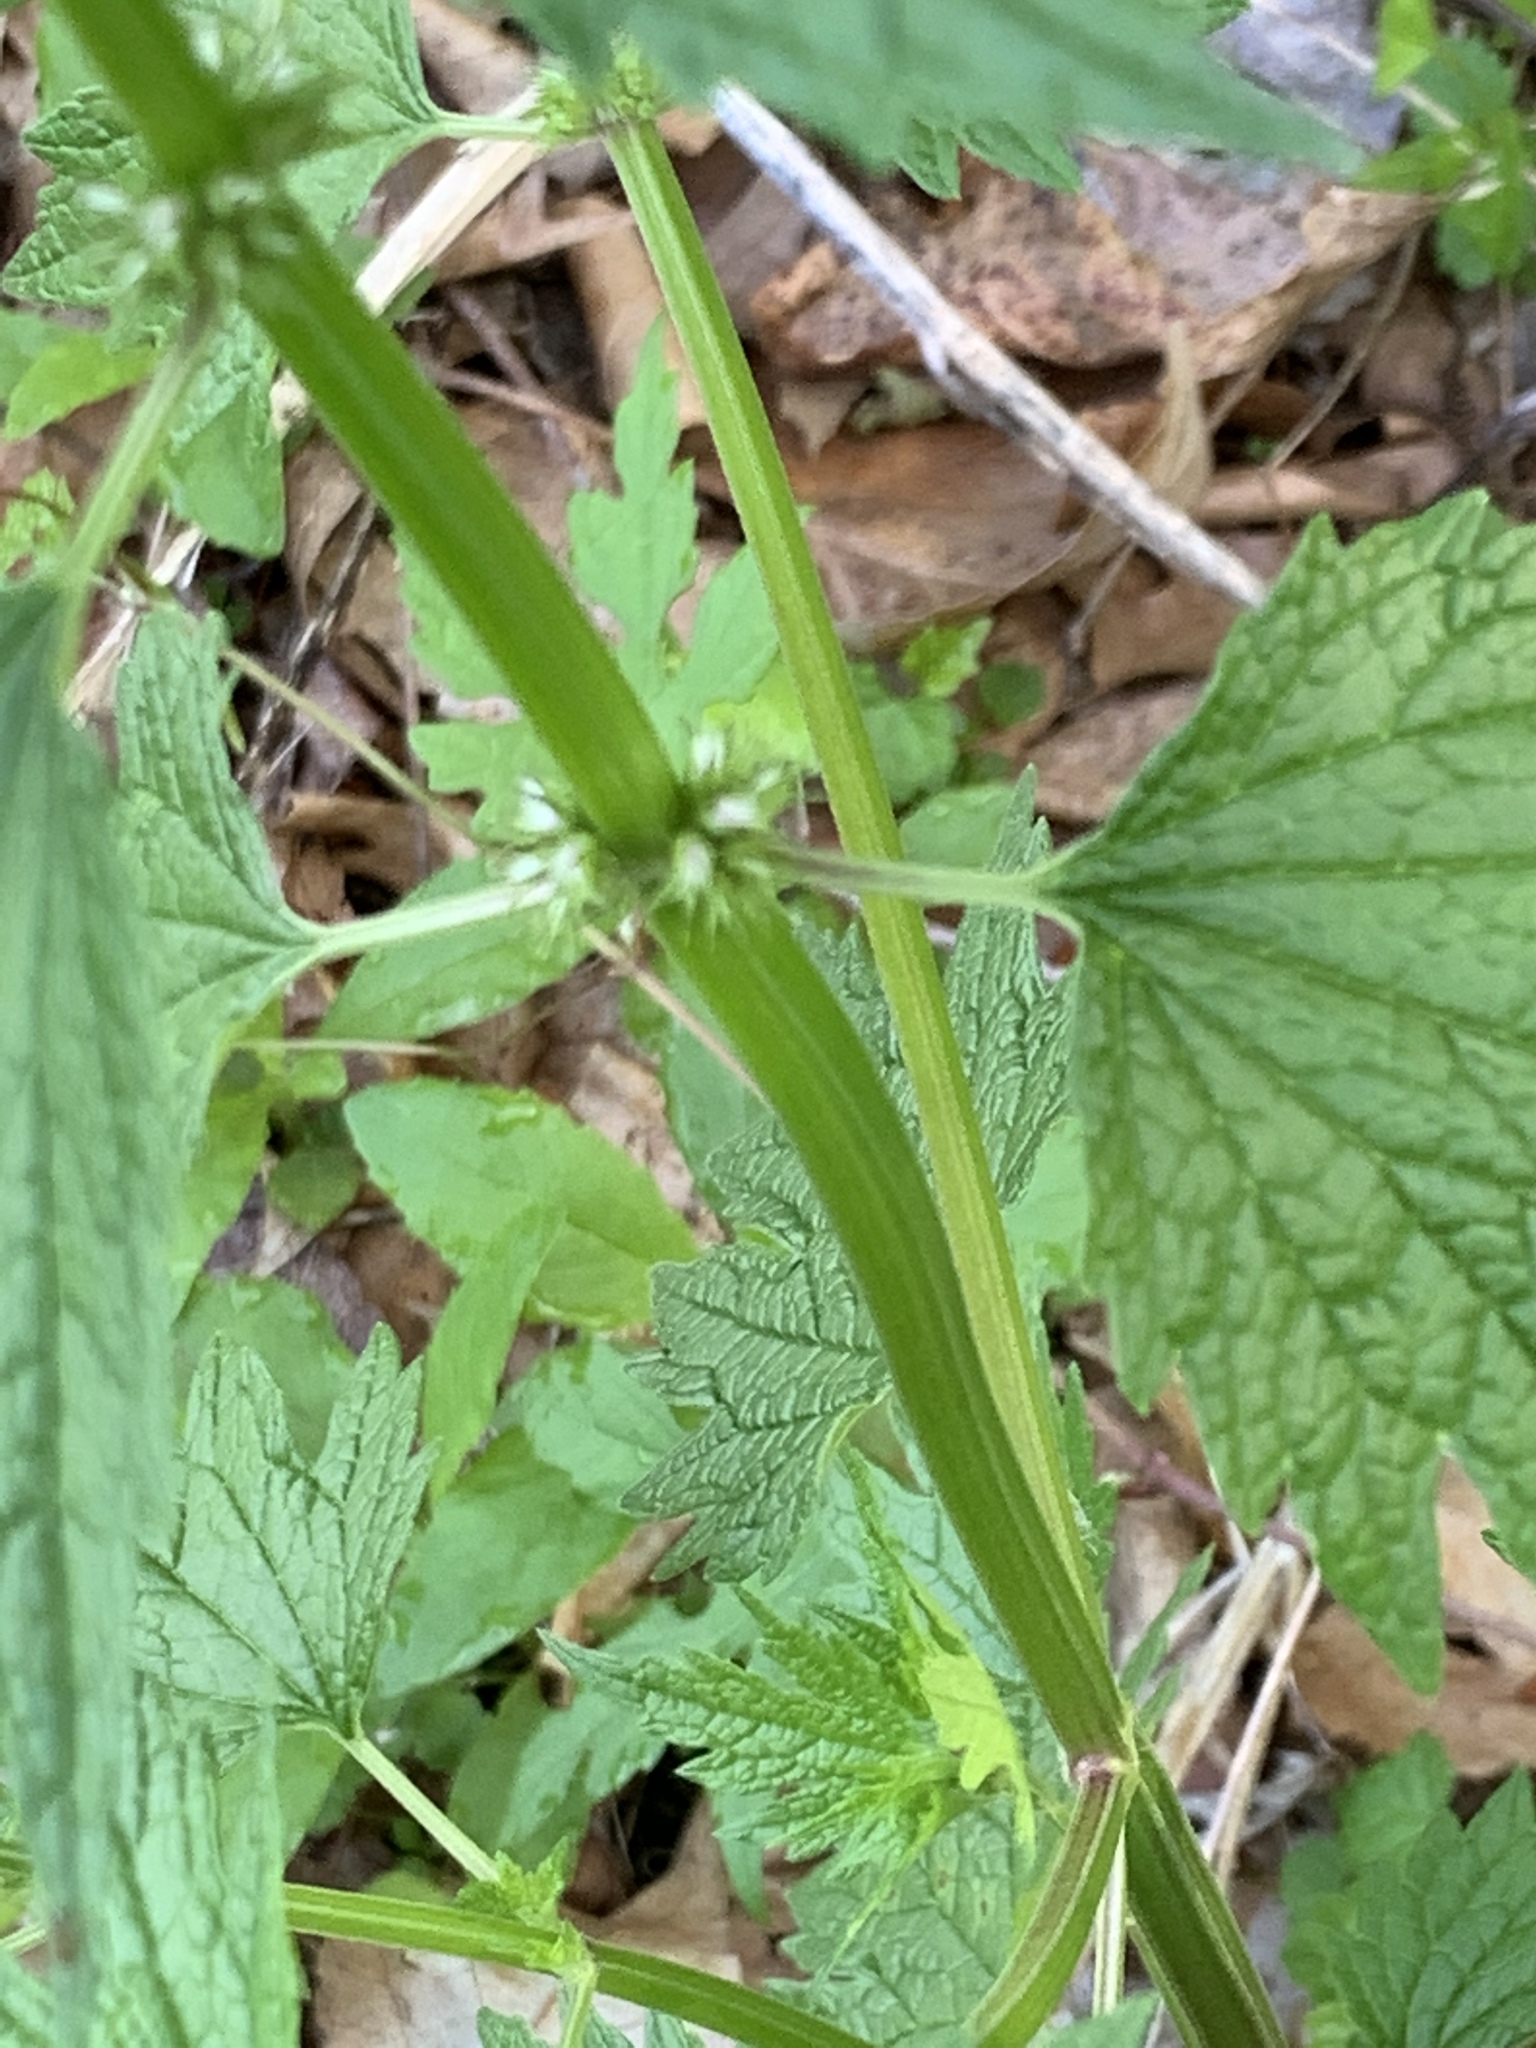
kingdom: Plantae
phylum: Tracheophyta
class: Magnoliopsida
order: Lamiales
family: Lamiaceae
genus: Leonurus
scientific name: Leonurus cardiaca
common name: Motherwort
